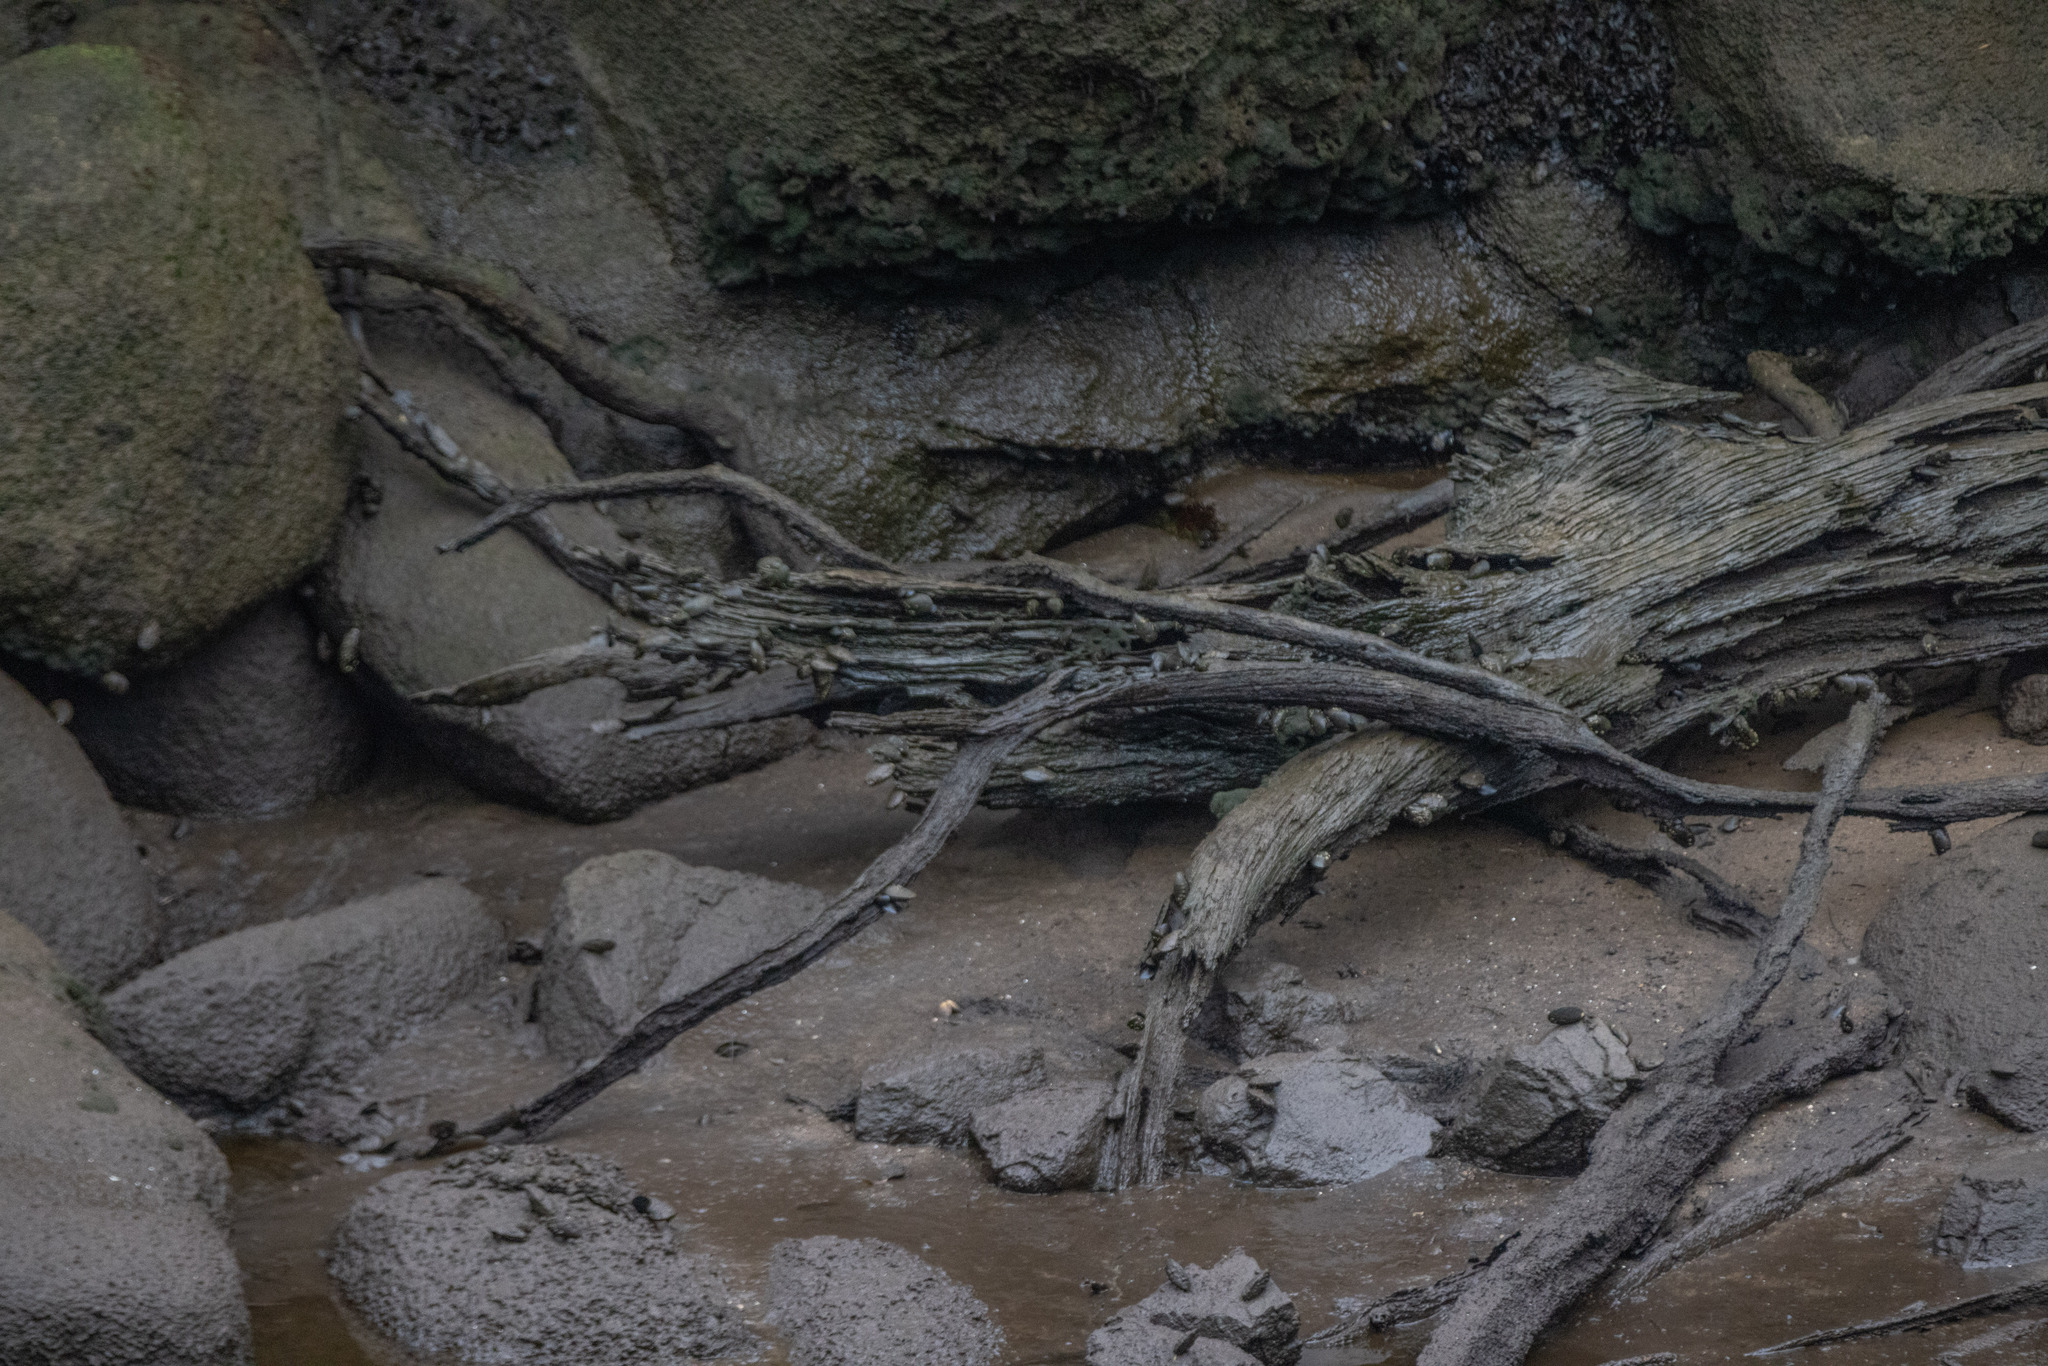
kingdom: Animalia
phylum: Mollusca
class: Bivalvia
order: Mytilida
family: Mytilidae
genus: Mytilus
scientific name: Mytilus planulatus
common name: Australian mussel
